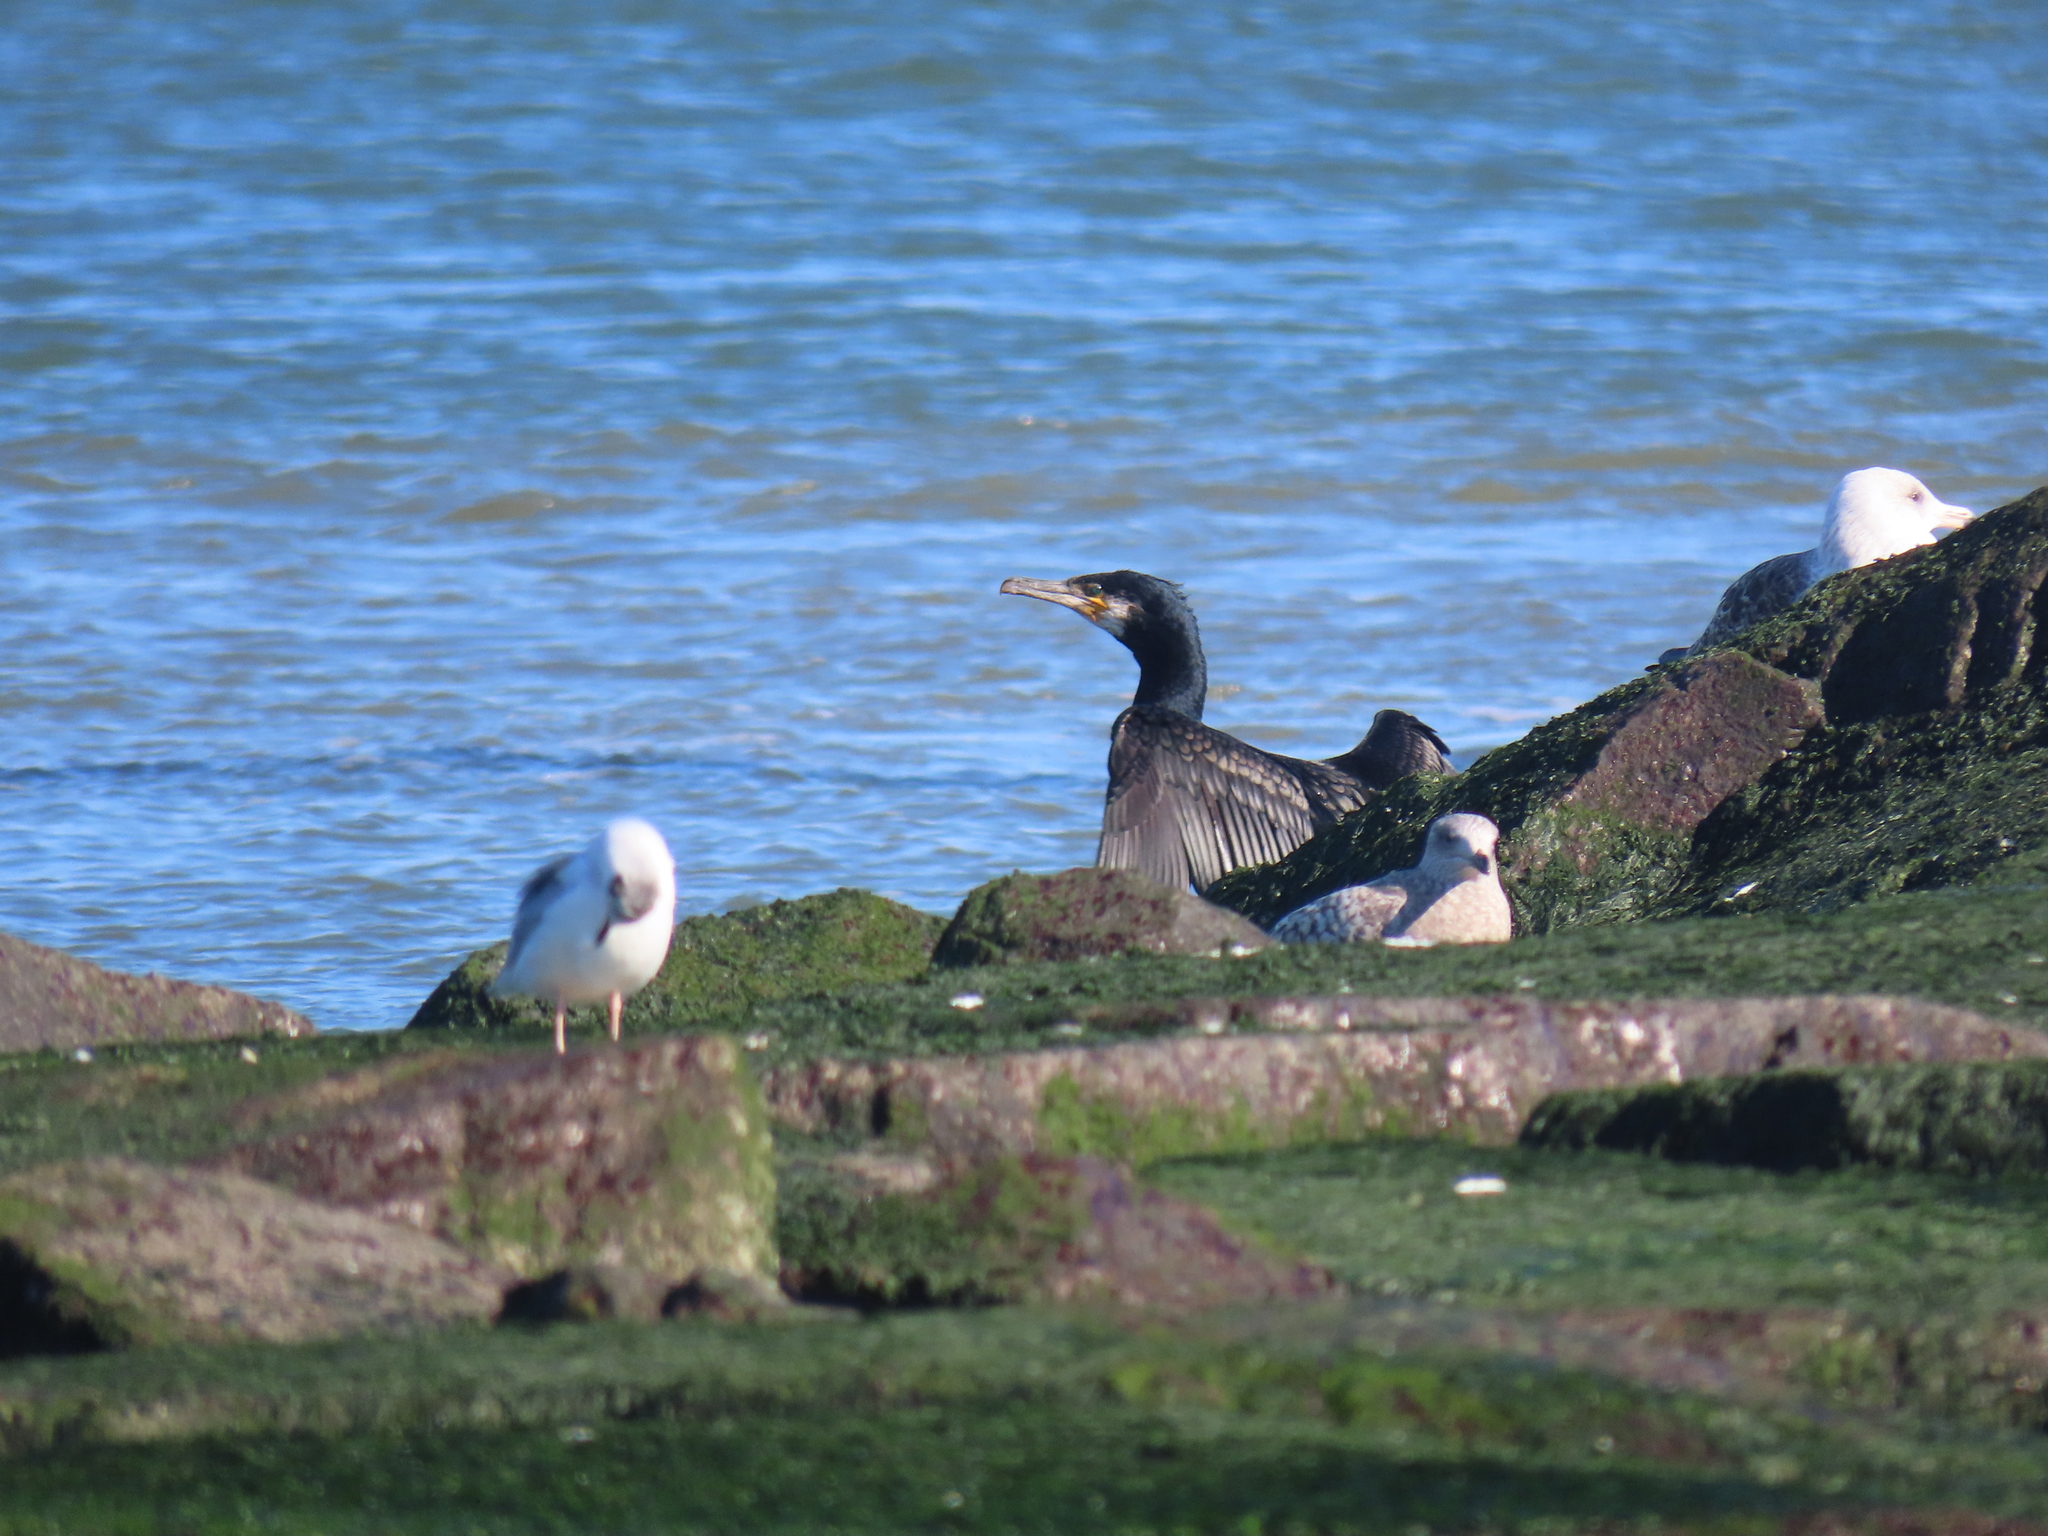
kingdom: Animalia
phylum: Chordata
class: Aves
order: Suliformes
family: Phalacrocoracidae
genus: Phalacrocorax
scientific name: Phalacrocorax carbo
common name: Great cormorant
